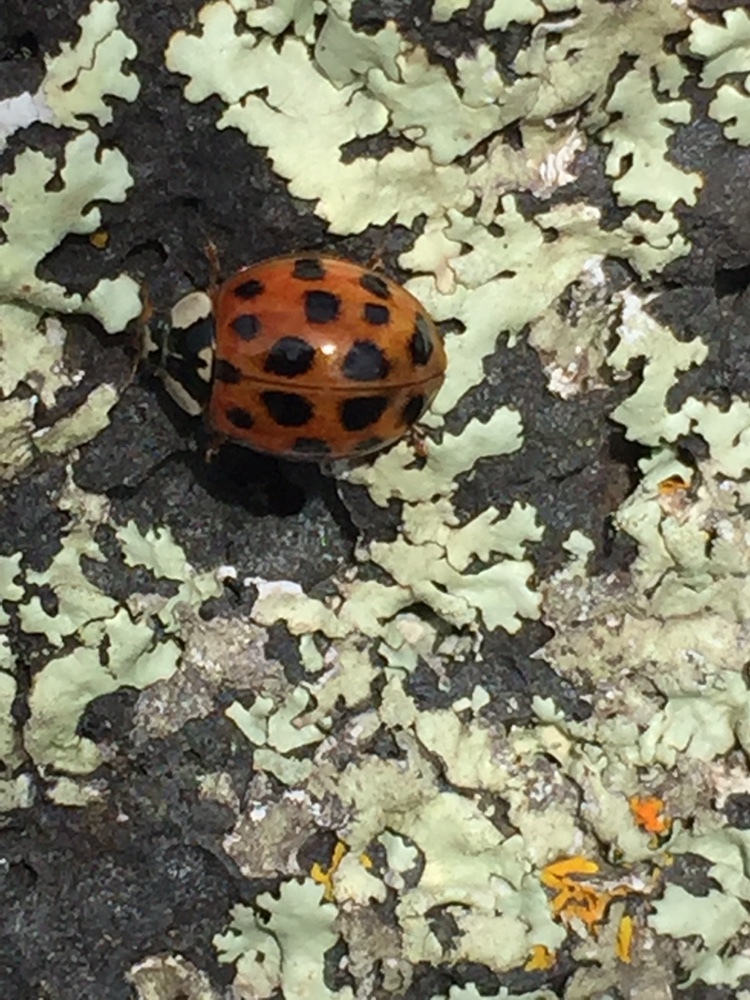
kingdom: Animalia
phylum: Arthropoda
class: Insecta
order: Coleoptera
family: Coccinellidae
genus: Harmonia
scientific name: Harmonia axyridis
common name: Harlequin ladybird
